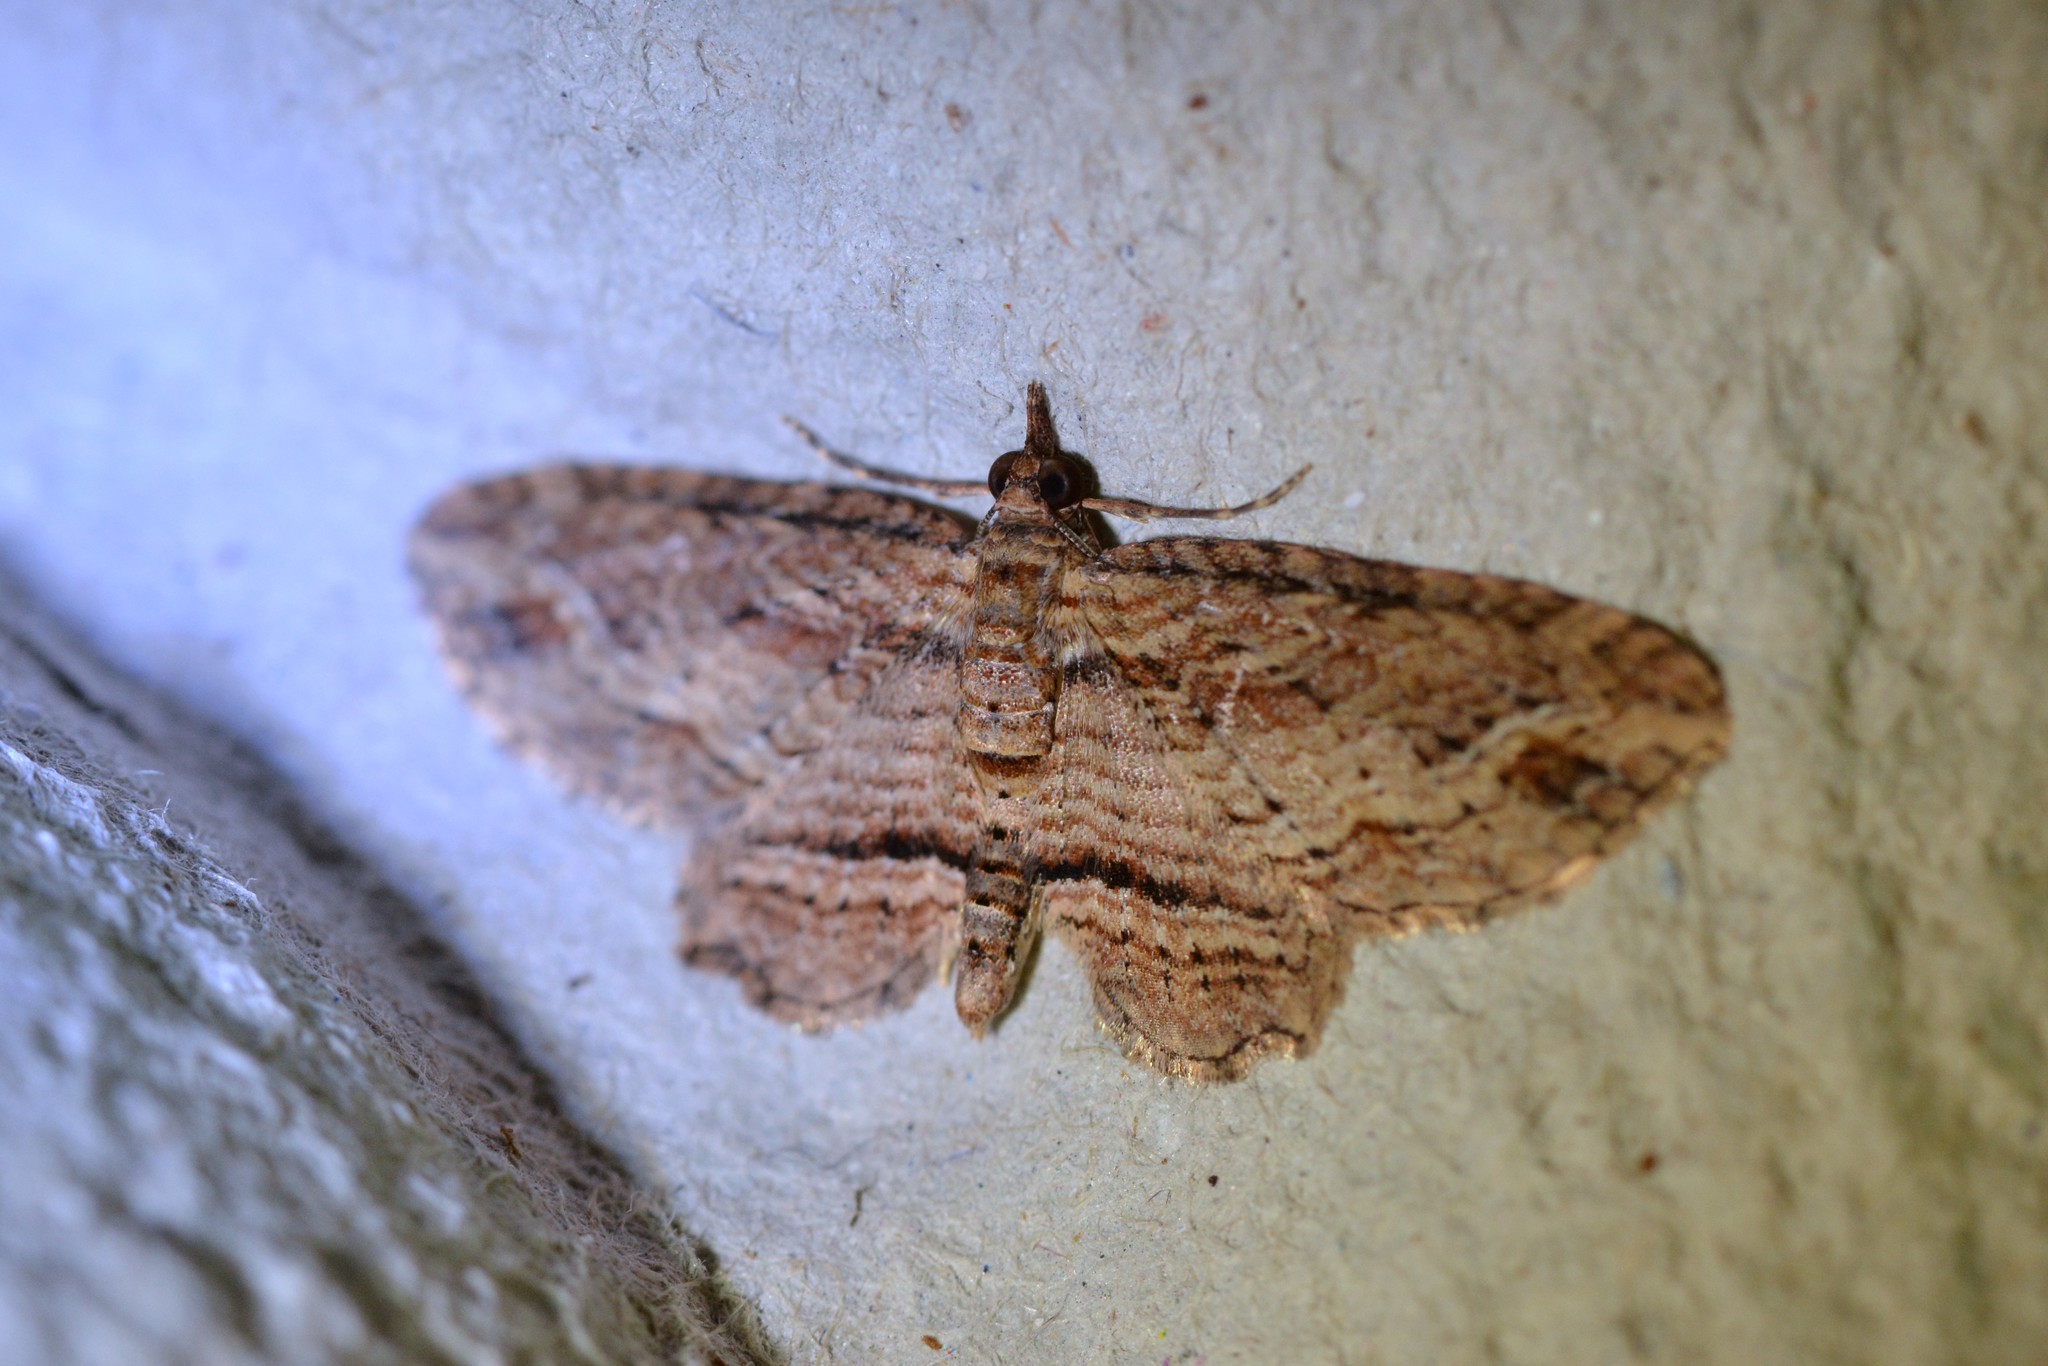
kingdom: Animalia
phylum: Arthropoda
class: Insecta
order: Lepidoptera
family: Geometridae
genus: Chloroclystis
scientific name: Chloroclystis filata
